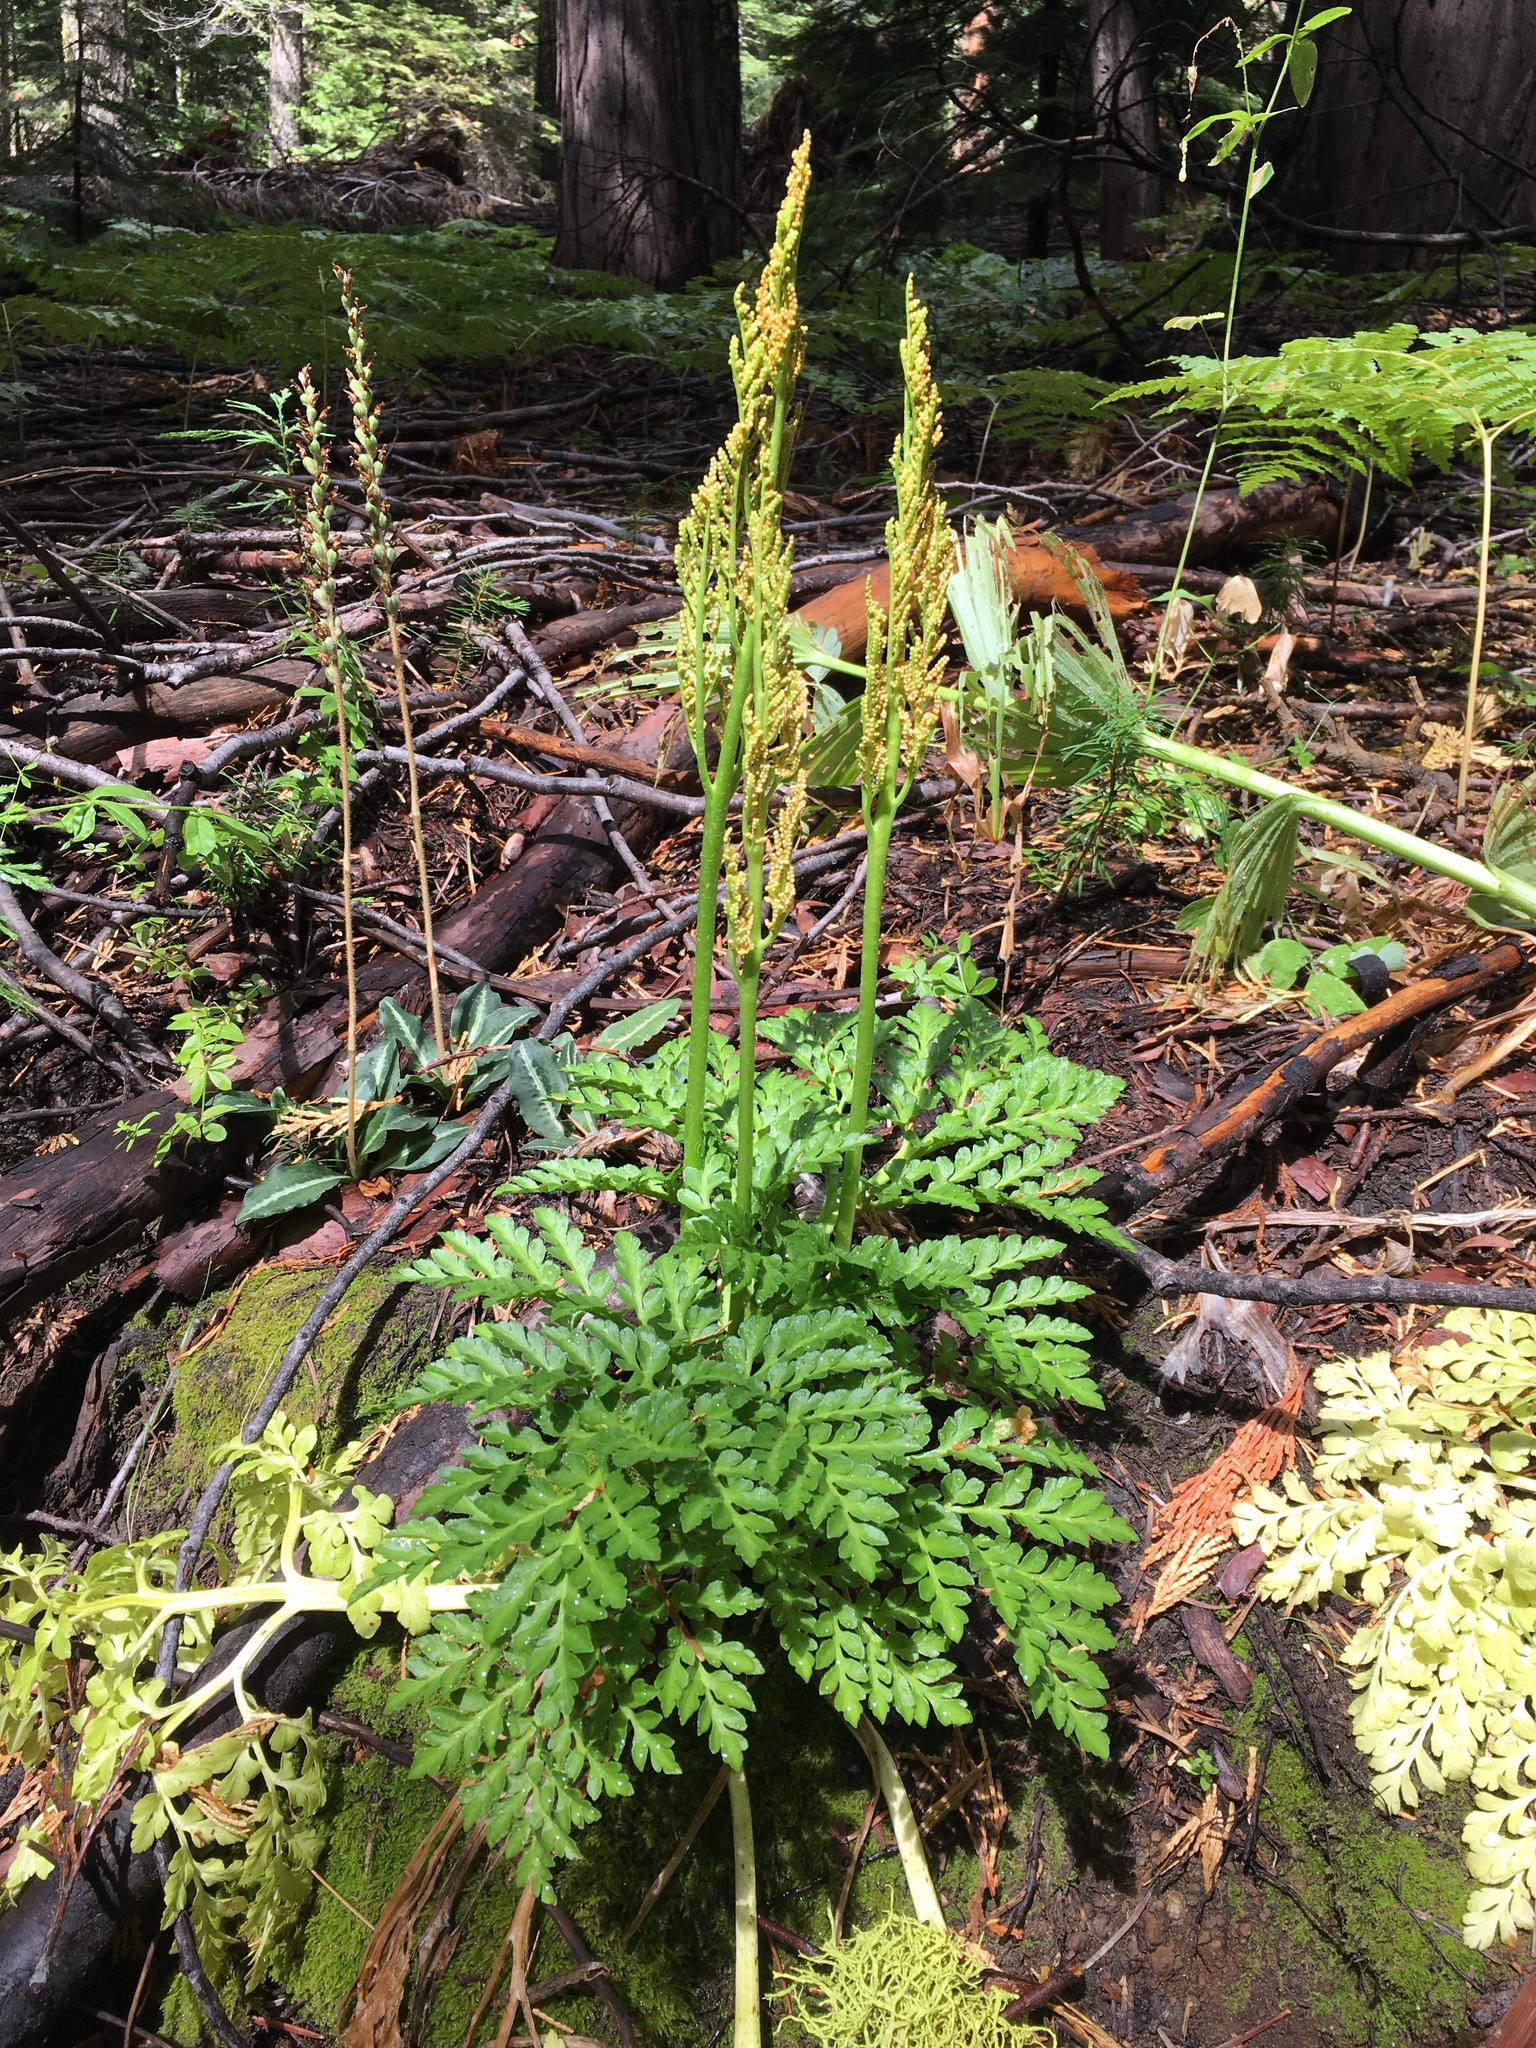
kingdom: Plantae
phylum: Tracheophyta
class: Polypodiopsida
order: Ophioglossales
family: Ophioglossaceae
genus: Sceptridium
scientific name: Sceptridium multifidum
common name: Leathery grape fern
